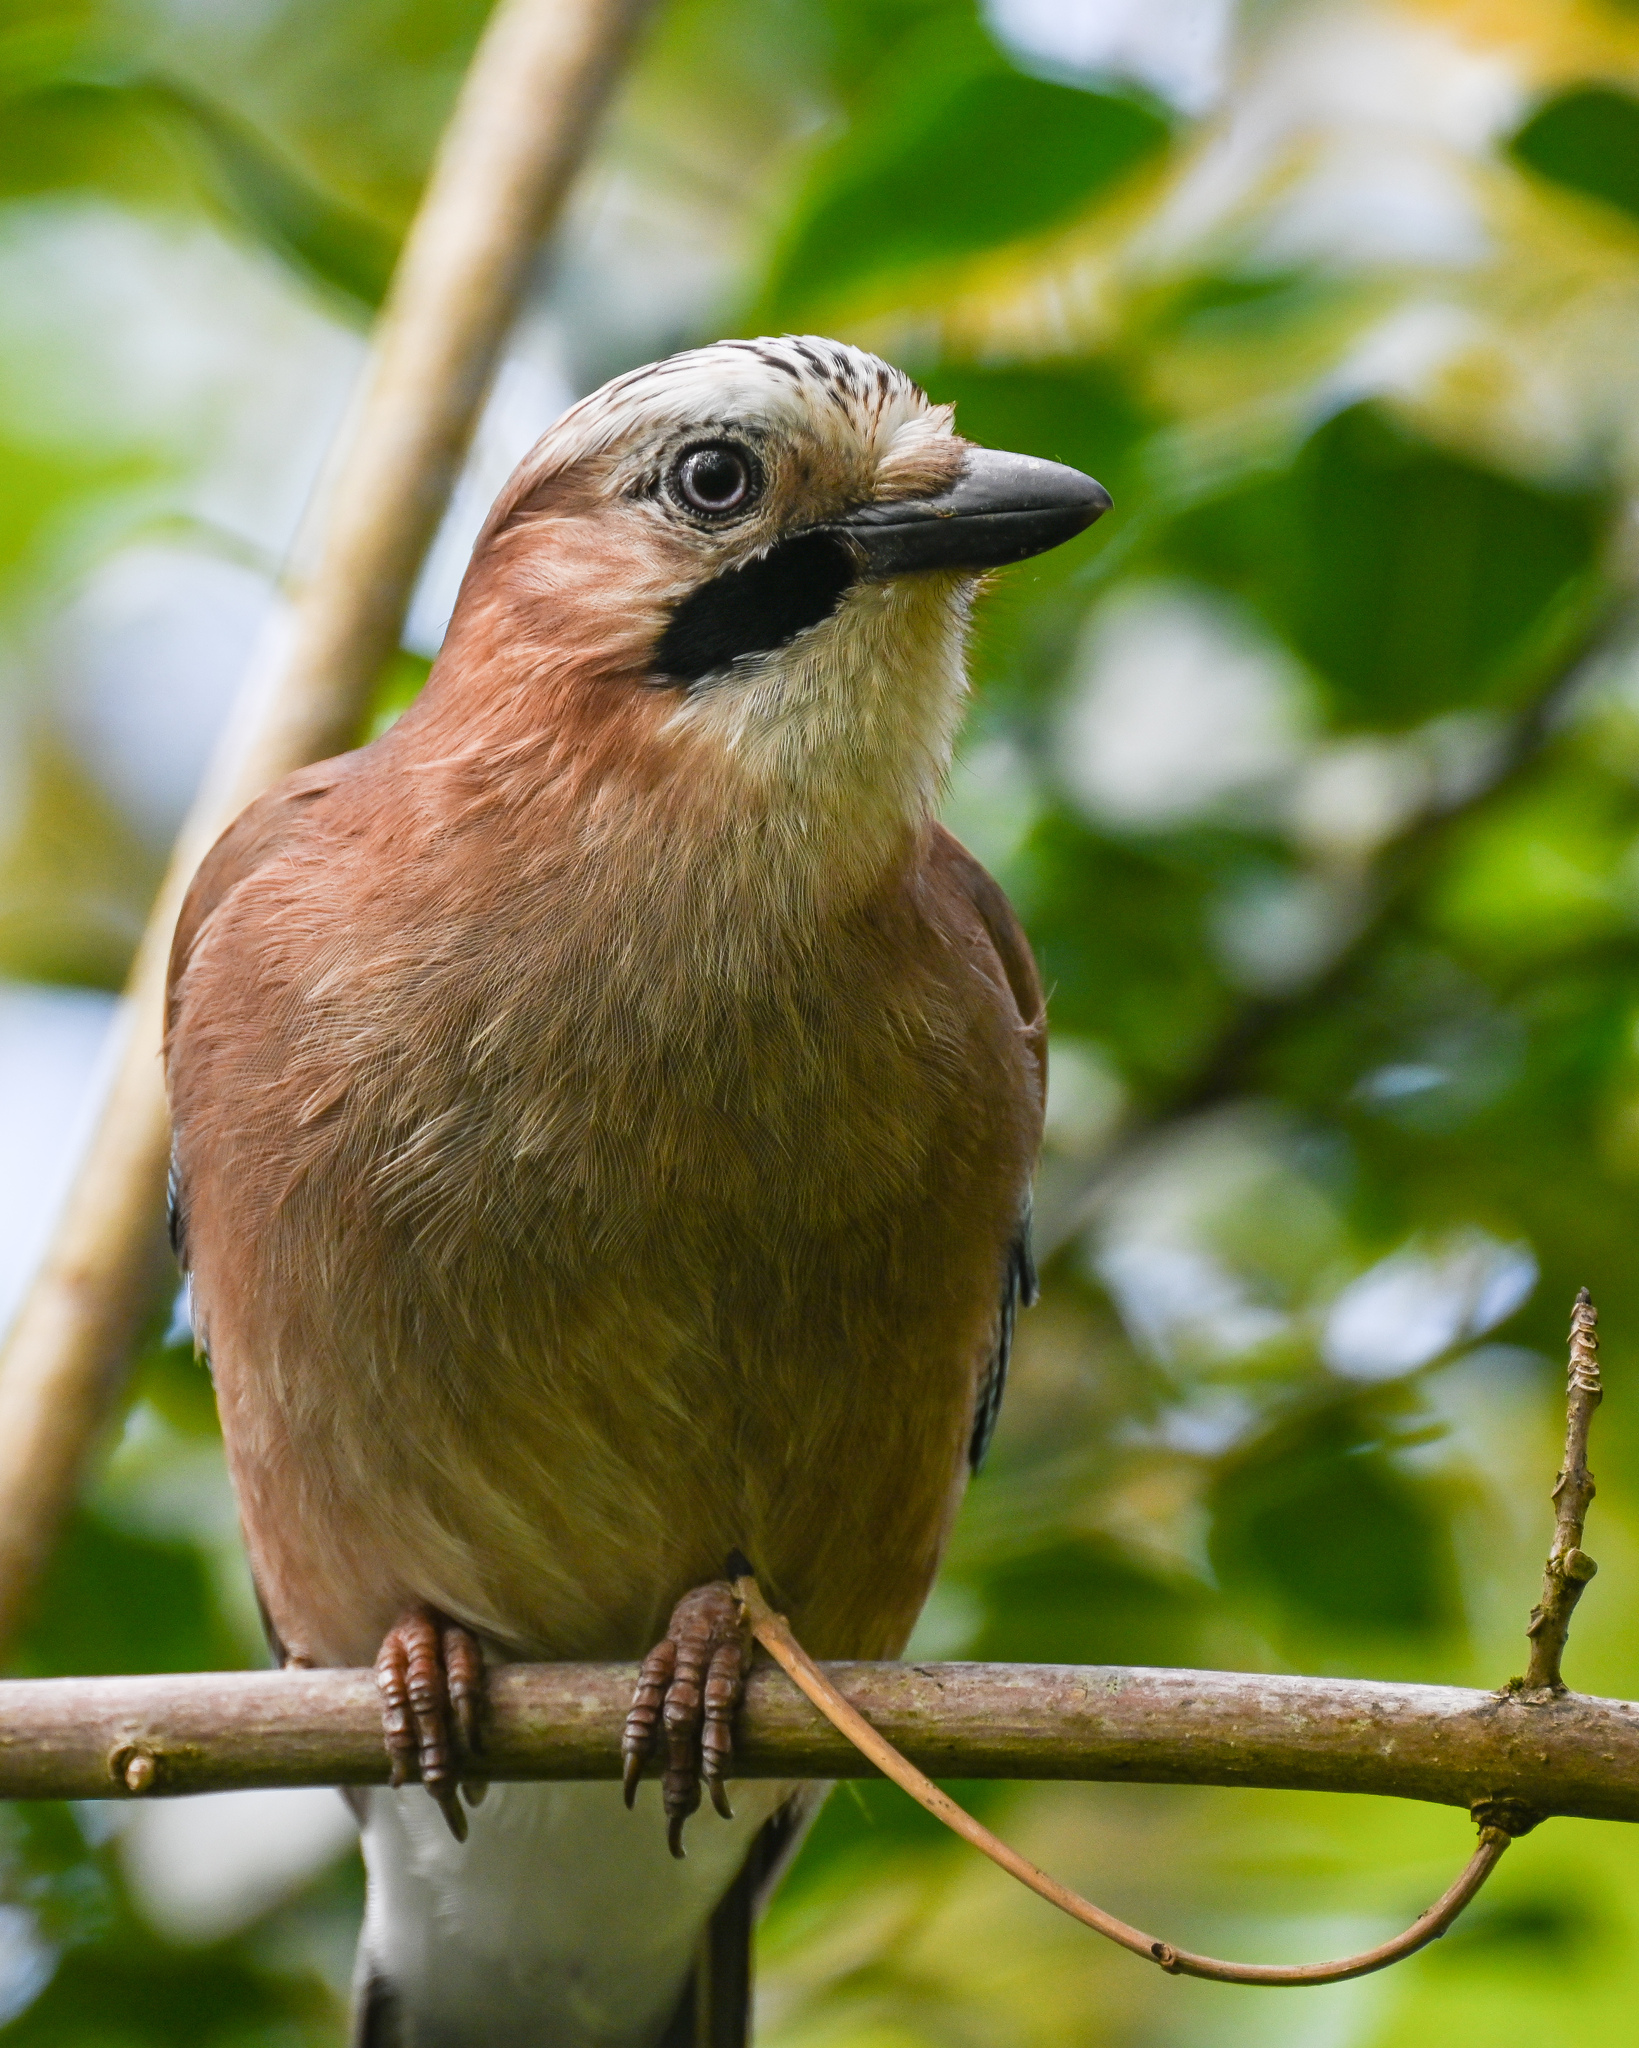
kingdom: Animalia
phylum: Chordata
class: Aves
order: Passeriformes
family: Corvidae
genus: Garrulus
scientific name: Garrulus glandarius
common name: Eurasian jay
